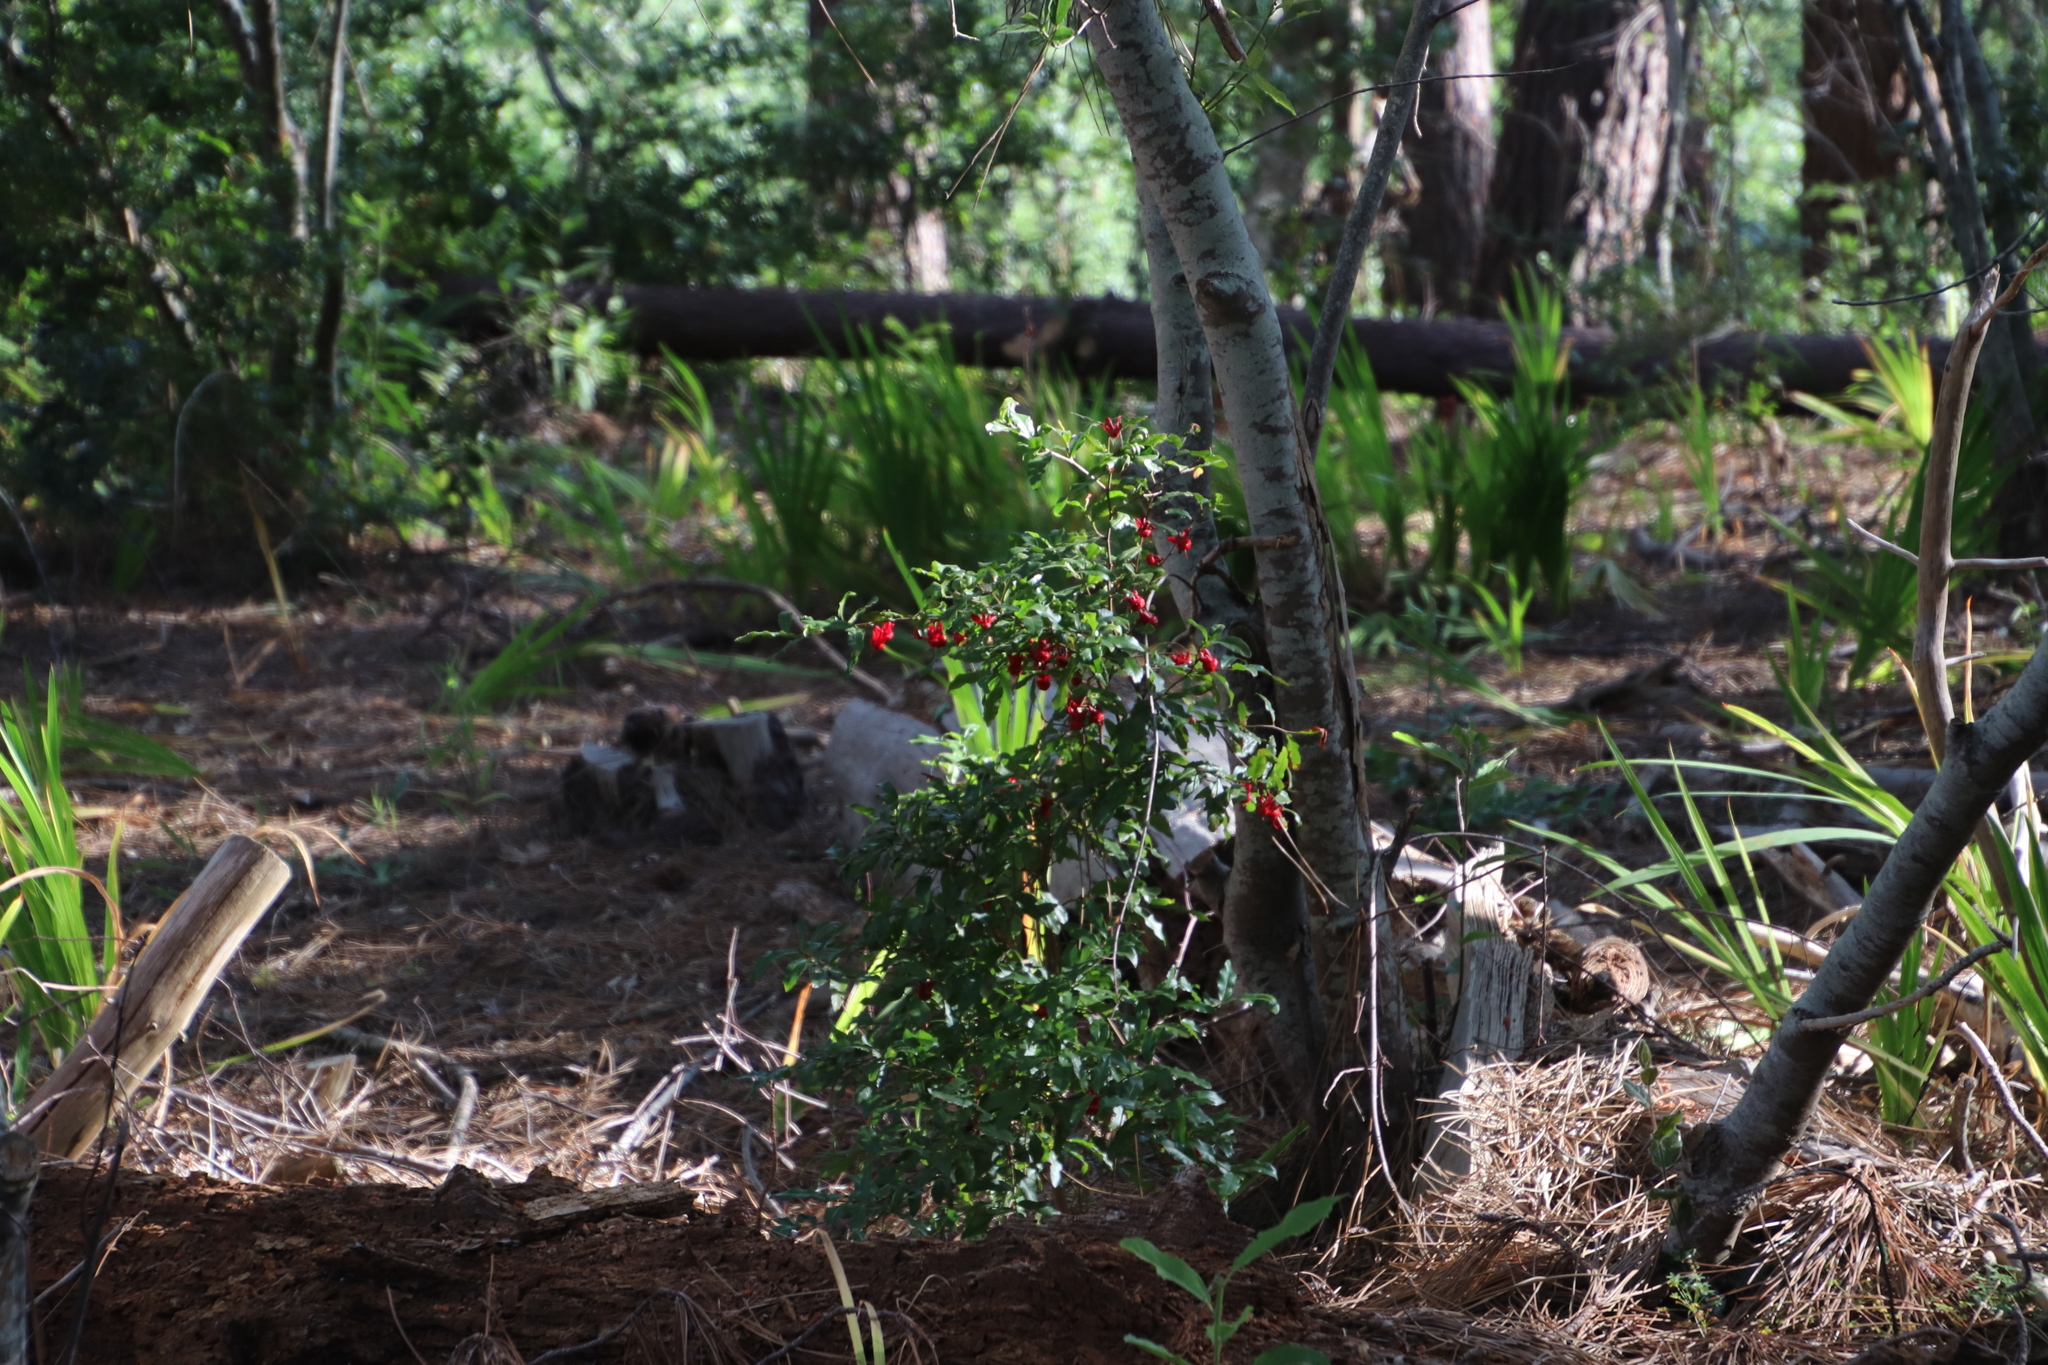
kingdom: Plantae
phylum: Tracheophyta
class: Magnoliopsida
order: Malpighiales
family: Ochnaceae
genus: Ochna
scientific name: Ochna serrulata
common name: Mickey mouse plant
